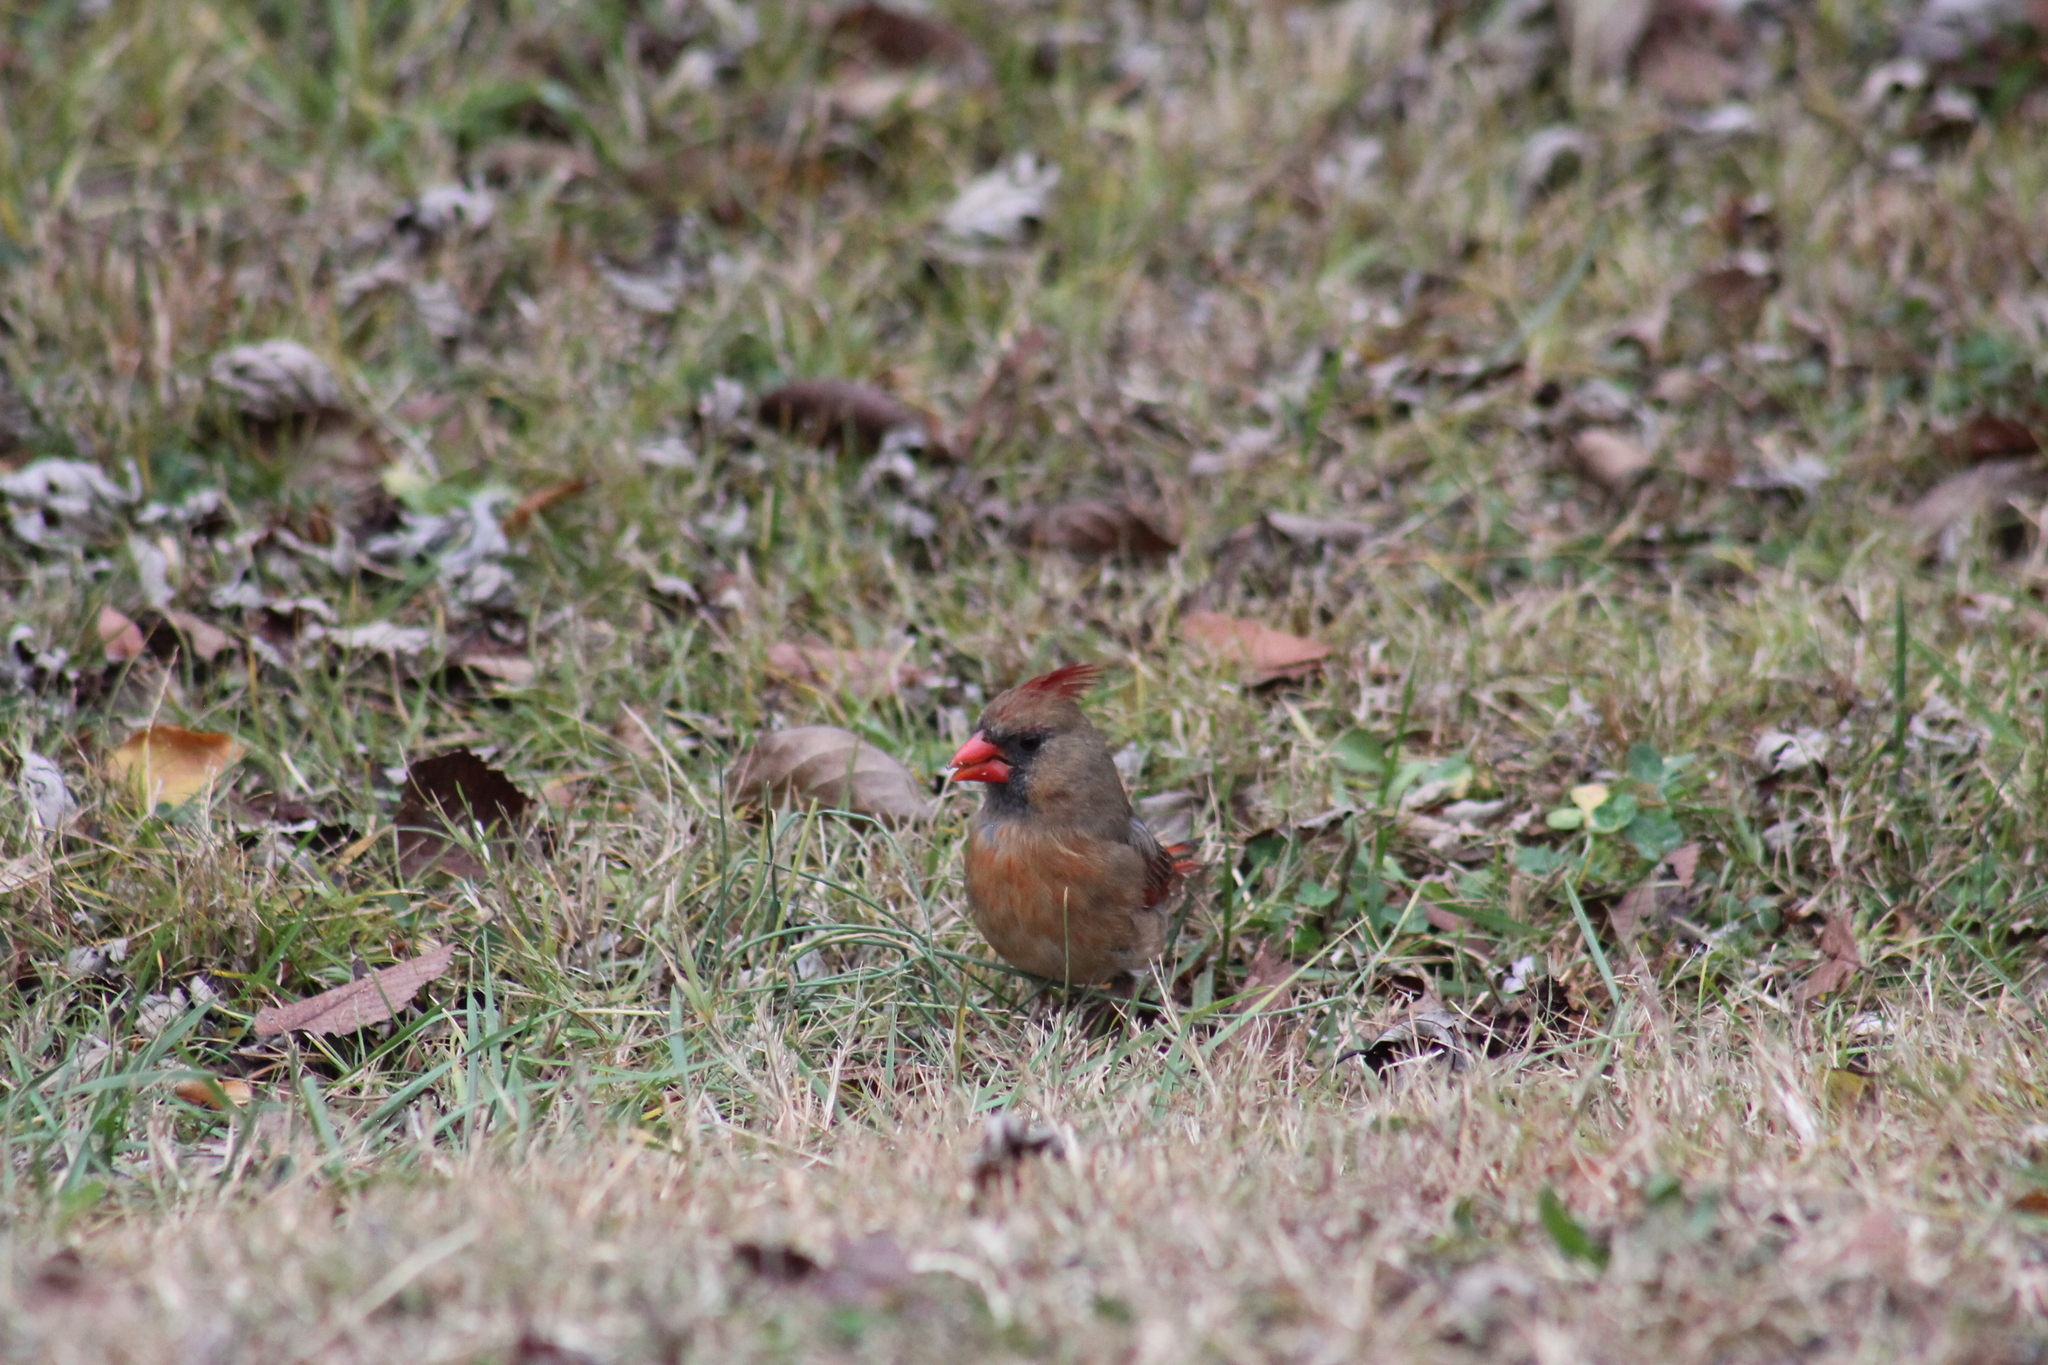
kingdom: Animalia
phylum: Chordata
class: Aves
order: Passeriformes
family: Cardinalidae
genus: Cardinalis
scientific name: Cardinalis cardinalis
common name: Northern cardinal
